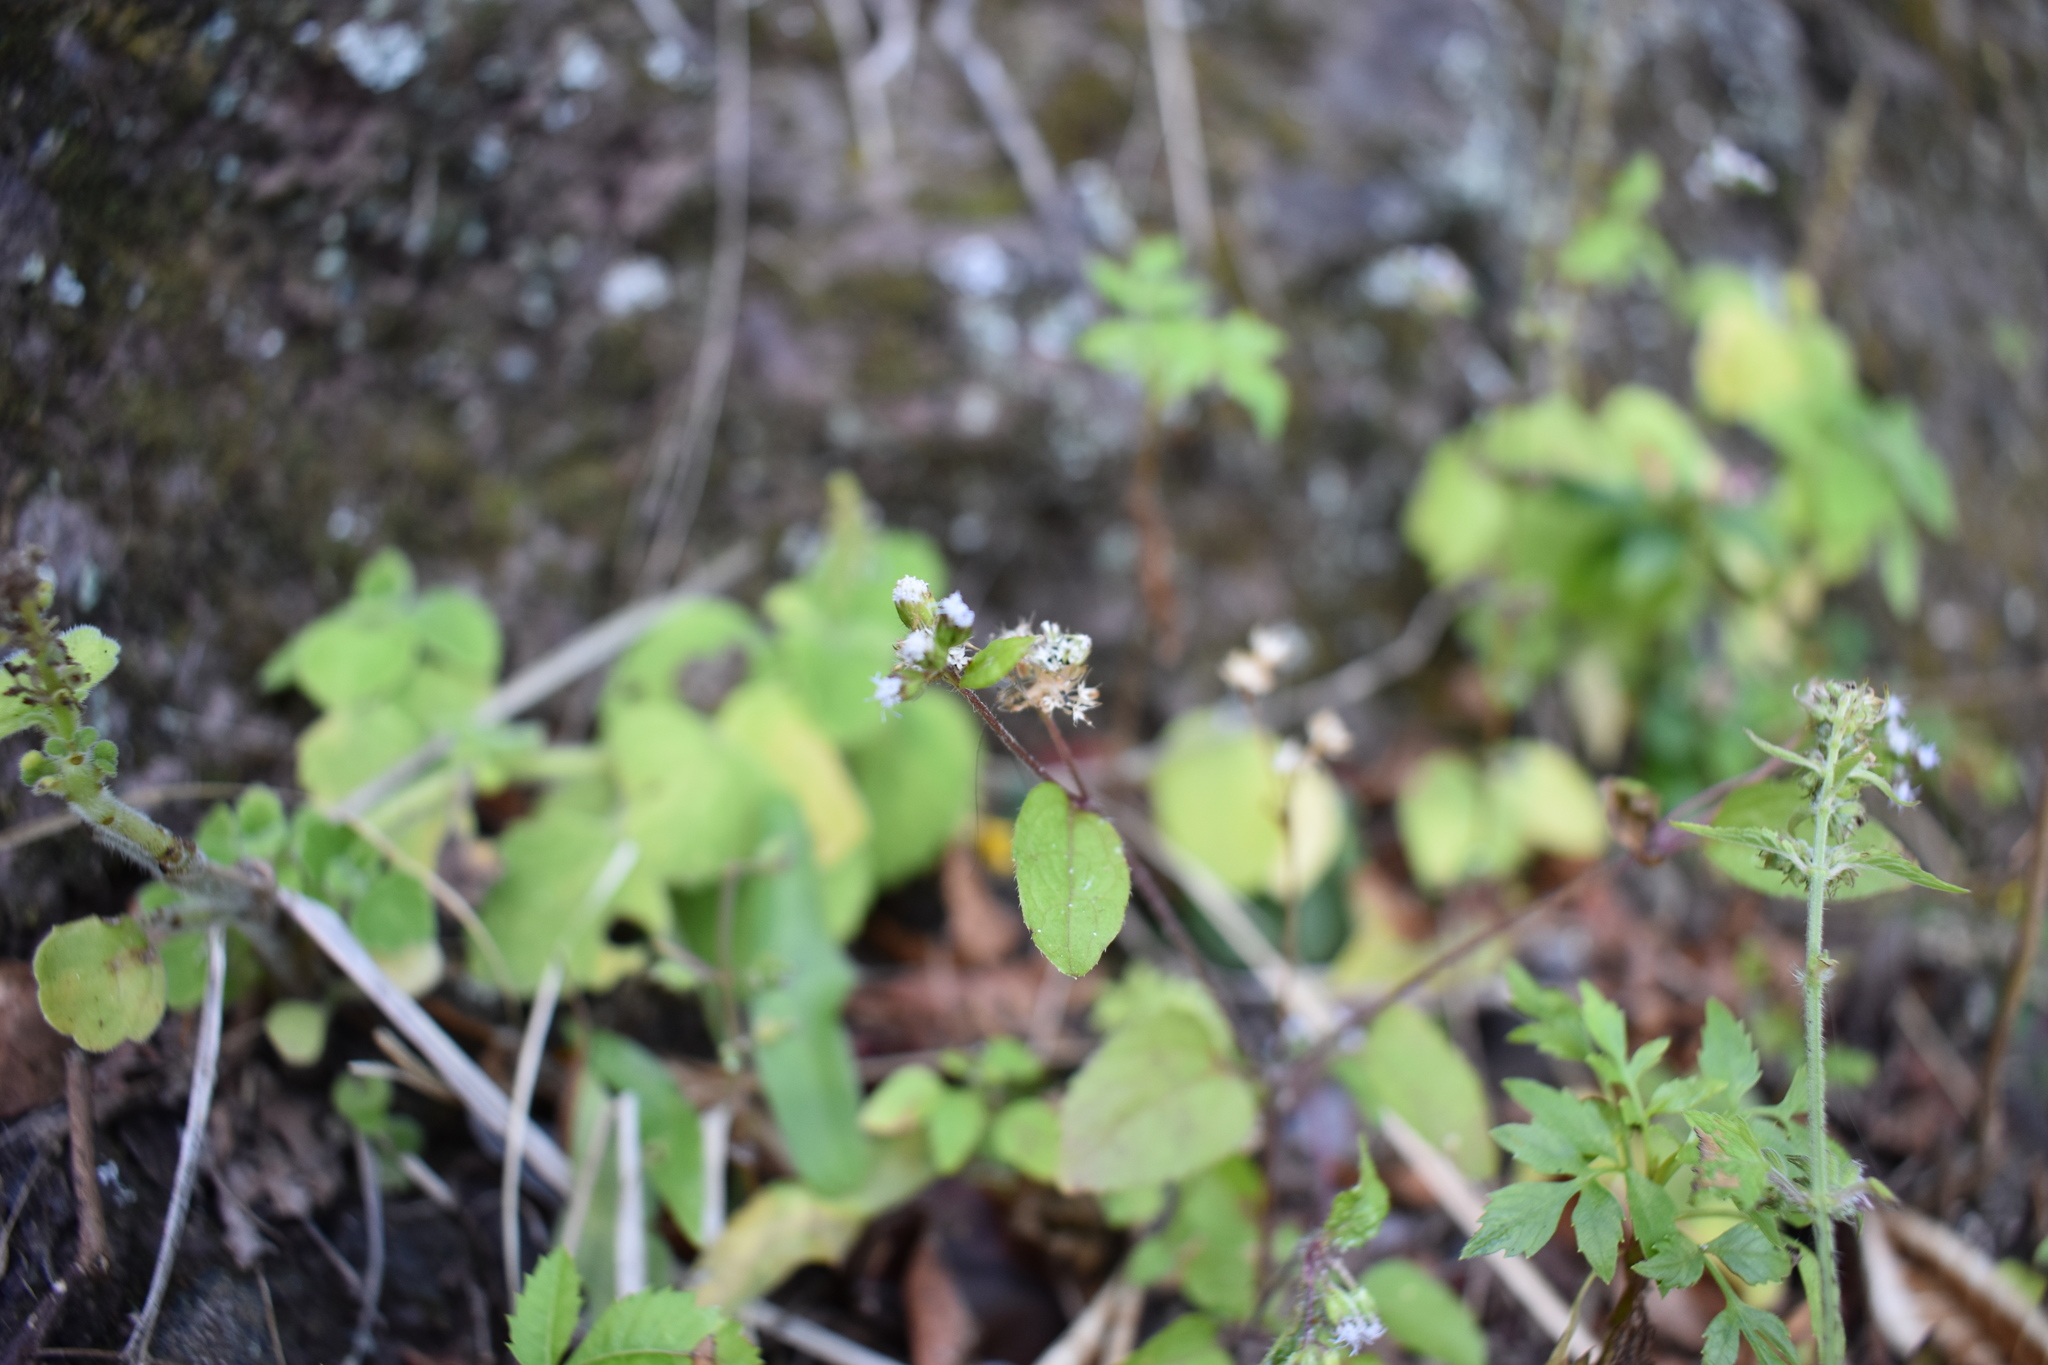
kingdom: Plantae
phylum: Tracheophyta
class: Magnoliopsida
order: Asterales
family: Asteraceae
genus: Ageratum
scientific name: Ageratum conyzoides
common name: Tropical whiteweed
